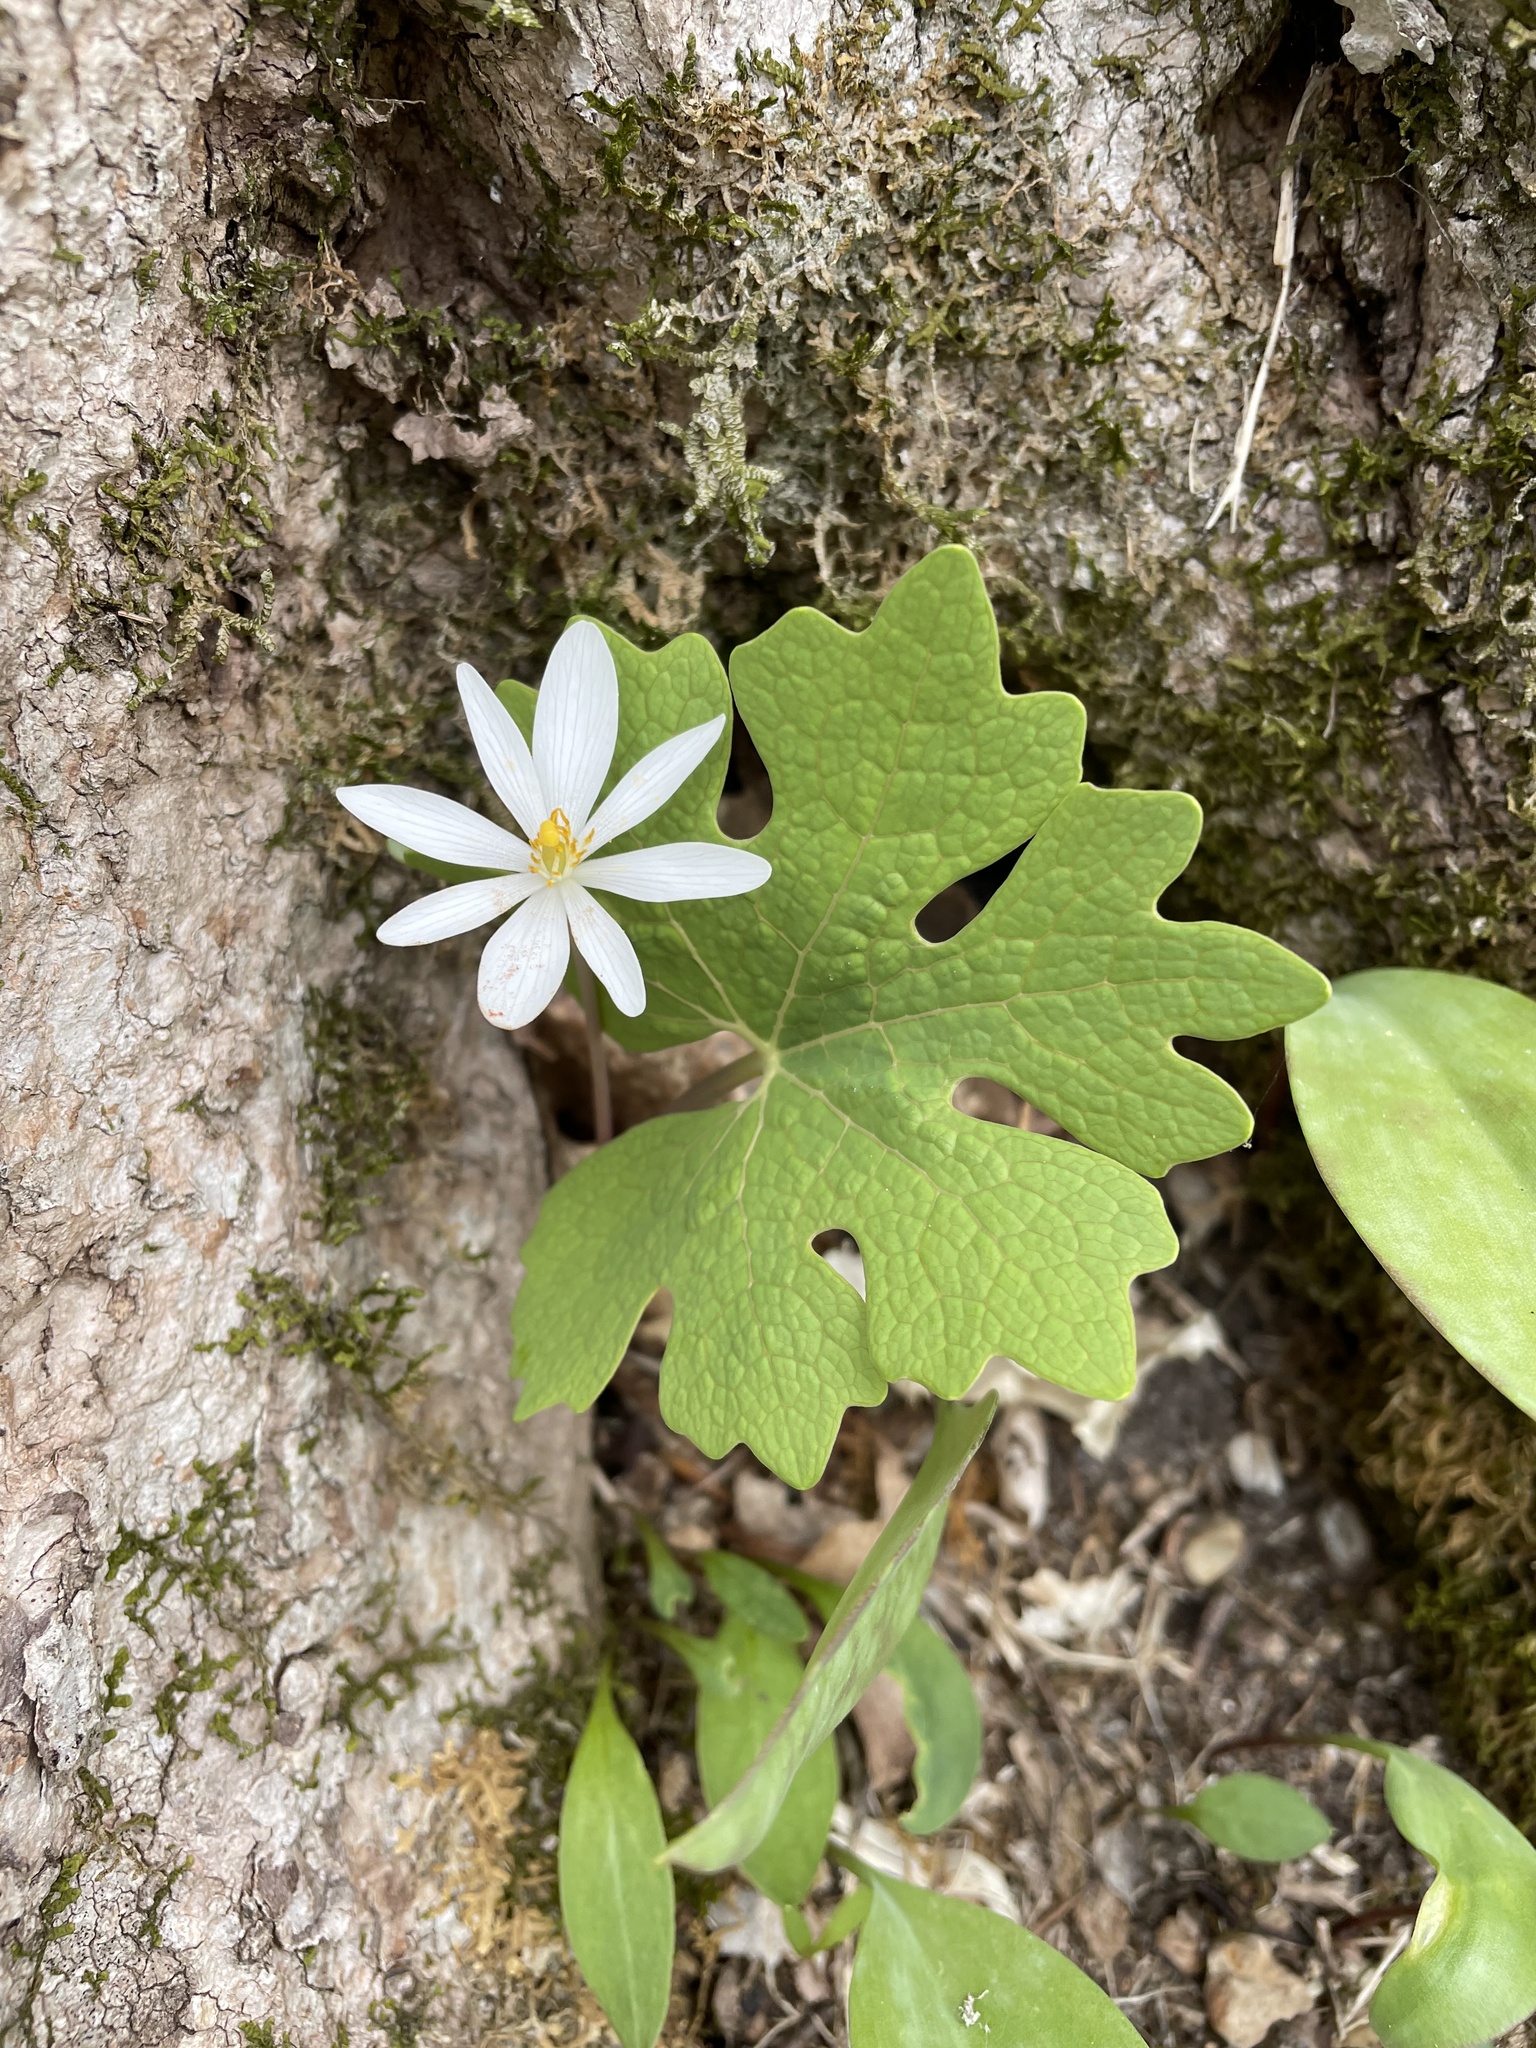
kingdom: Plantae
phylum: Tracheophyta
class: Magnoliopsida
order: Ranunculales
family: Papaveraceae
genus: Sanguinaria
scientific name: Sanguinaria canadensis
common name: Bloodroot
